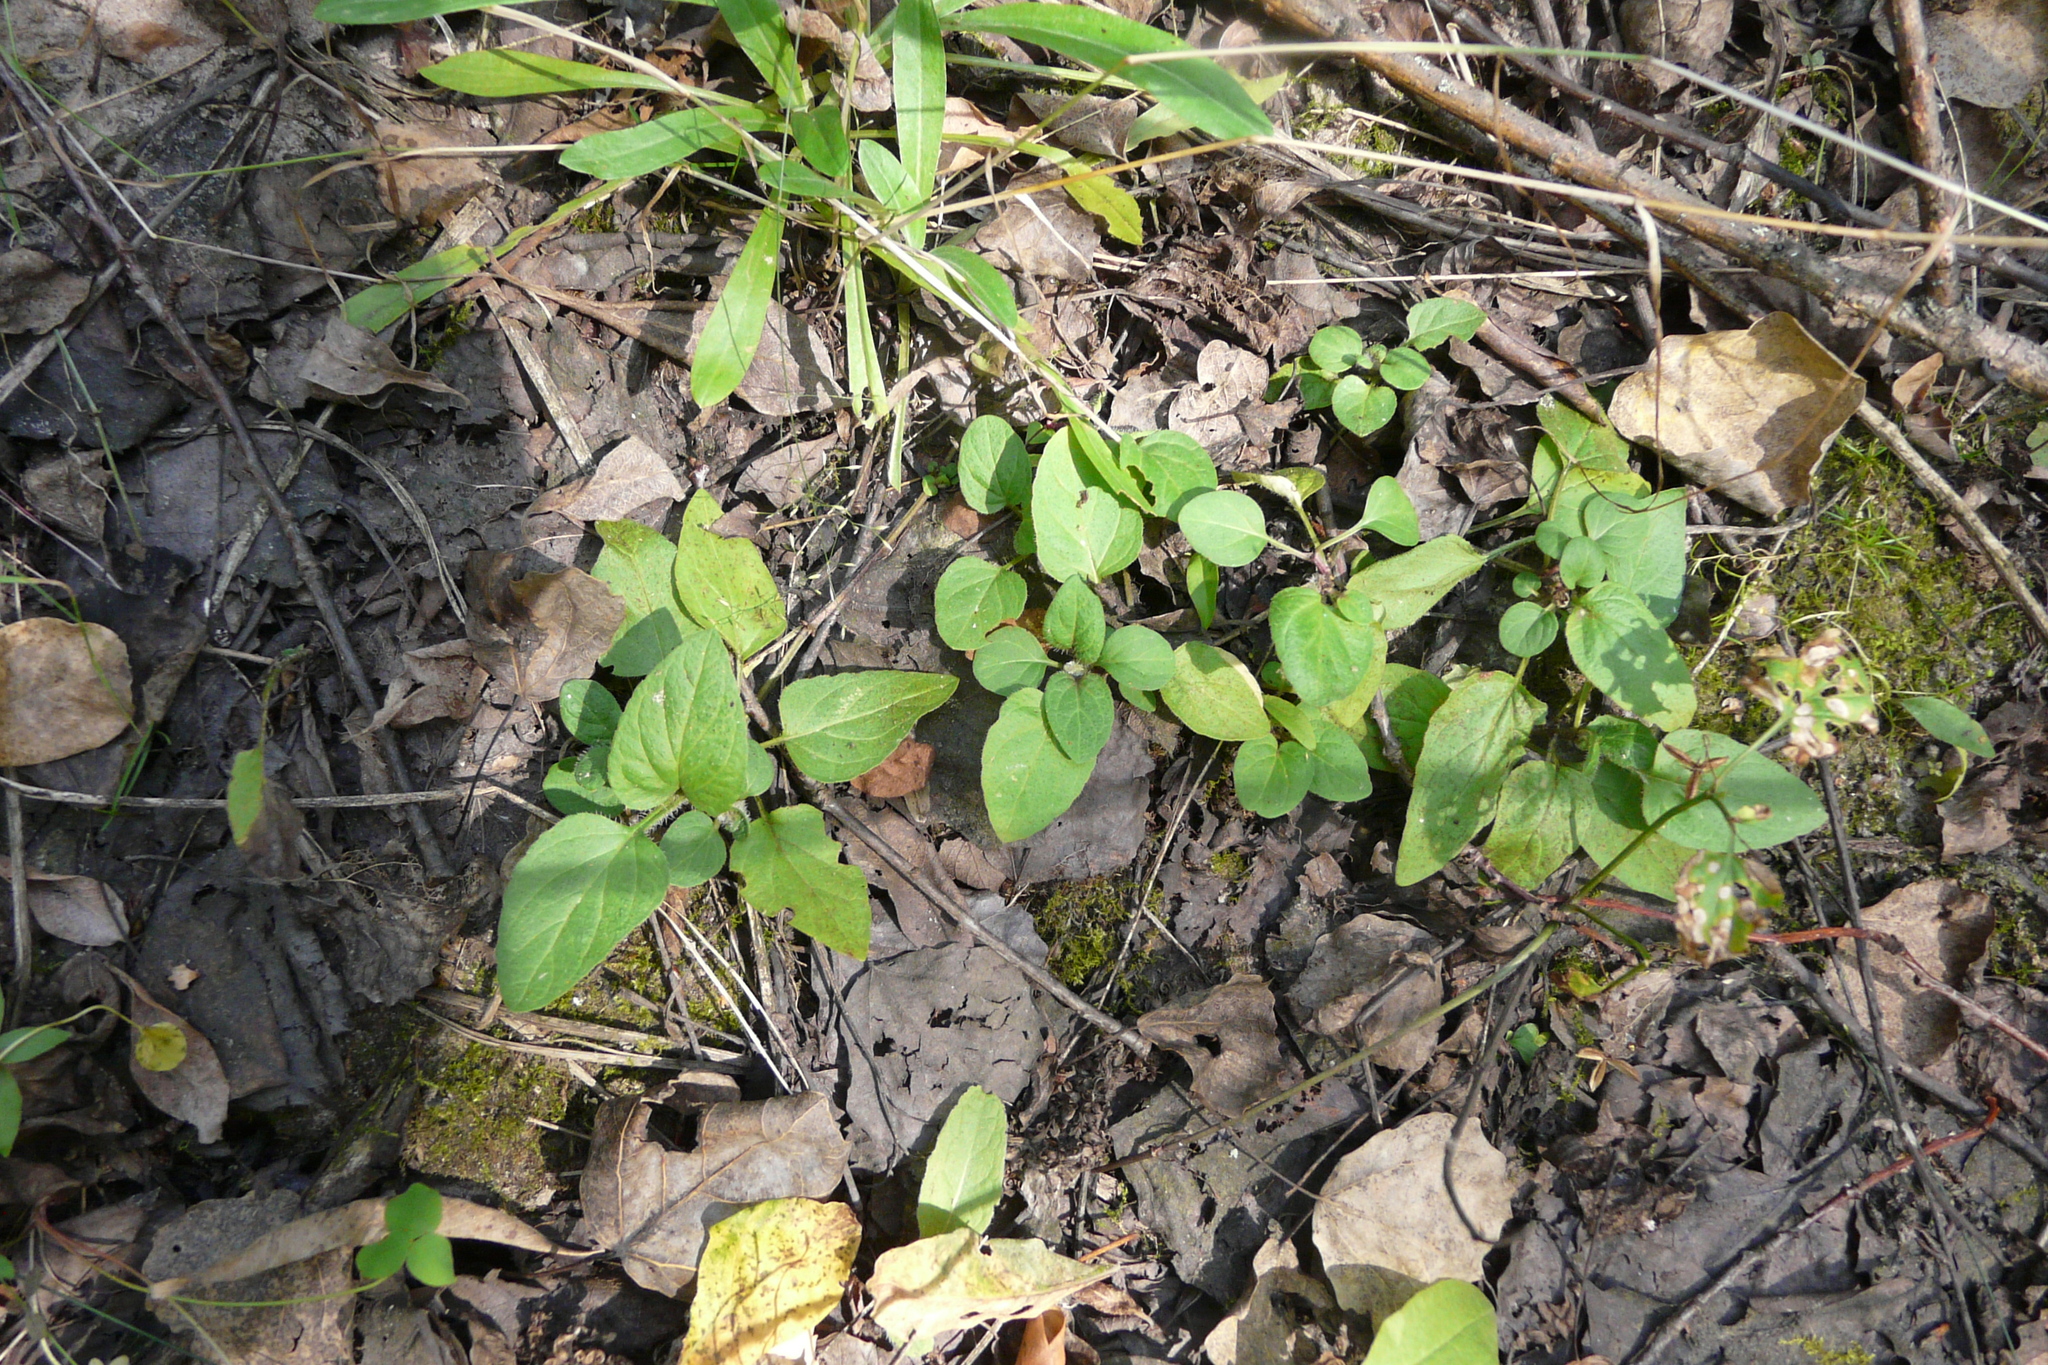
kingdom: Plantae
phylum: Tracheophyta
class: Magnoliopsida
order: Lamiales
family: Lamiaceae
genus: Prunella
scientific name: Prunella vulgaris
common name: Heal-all
